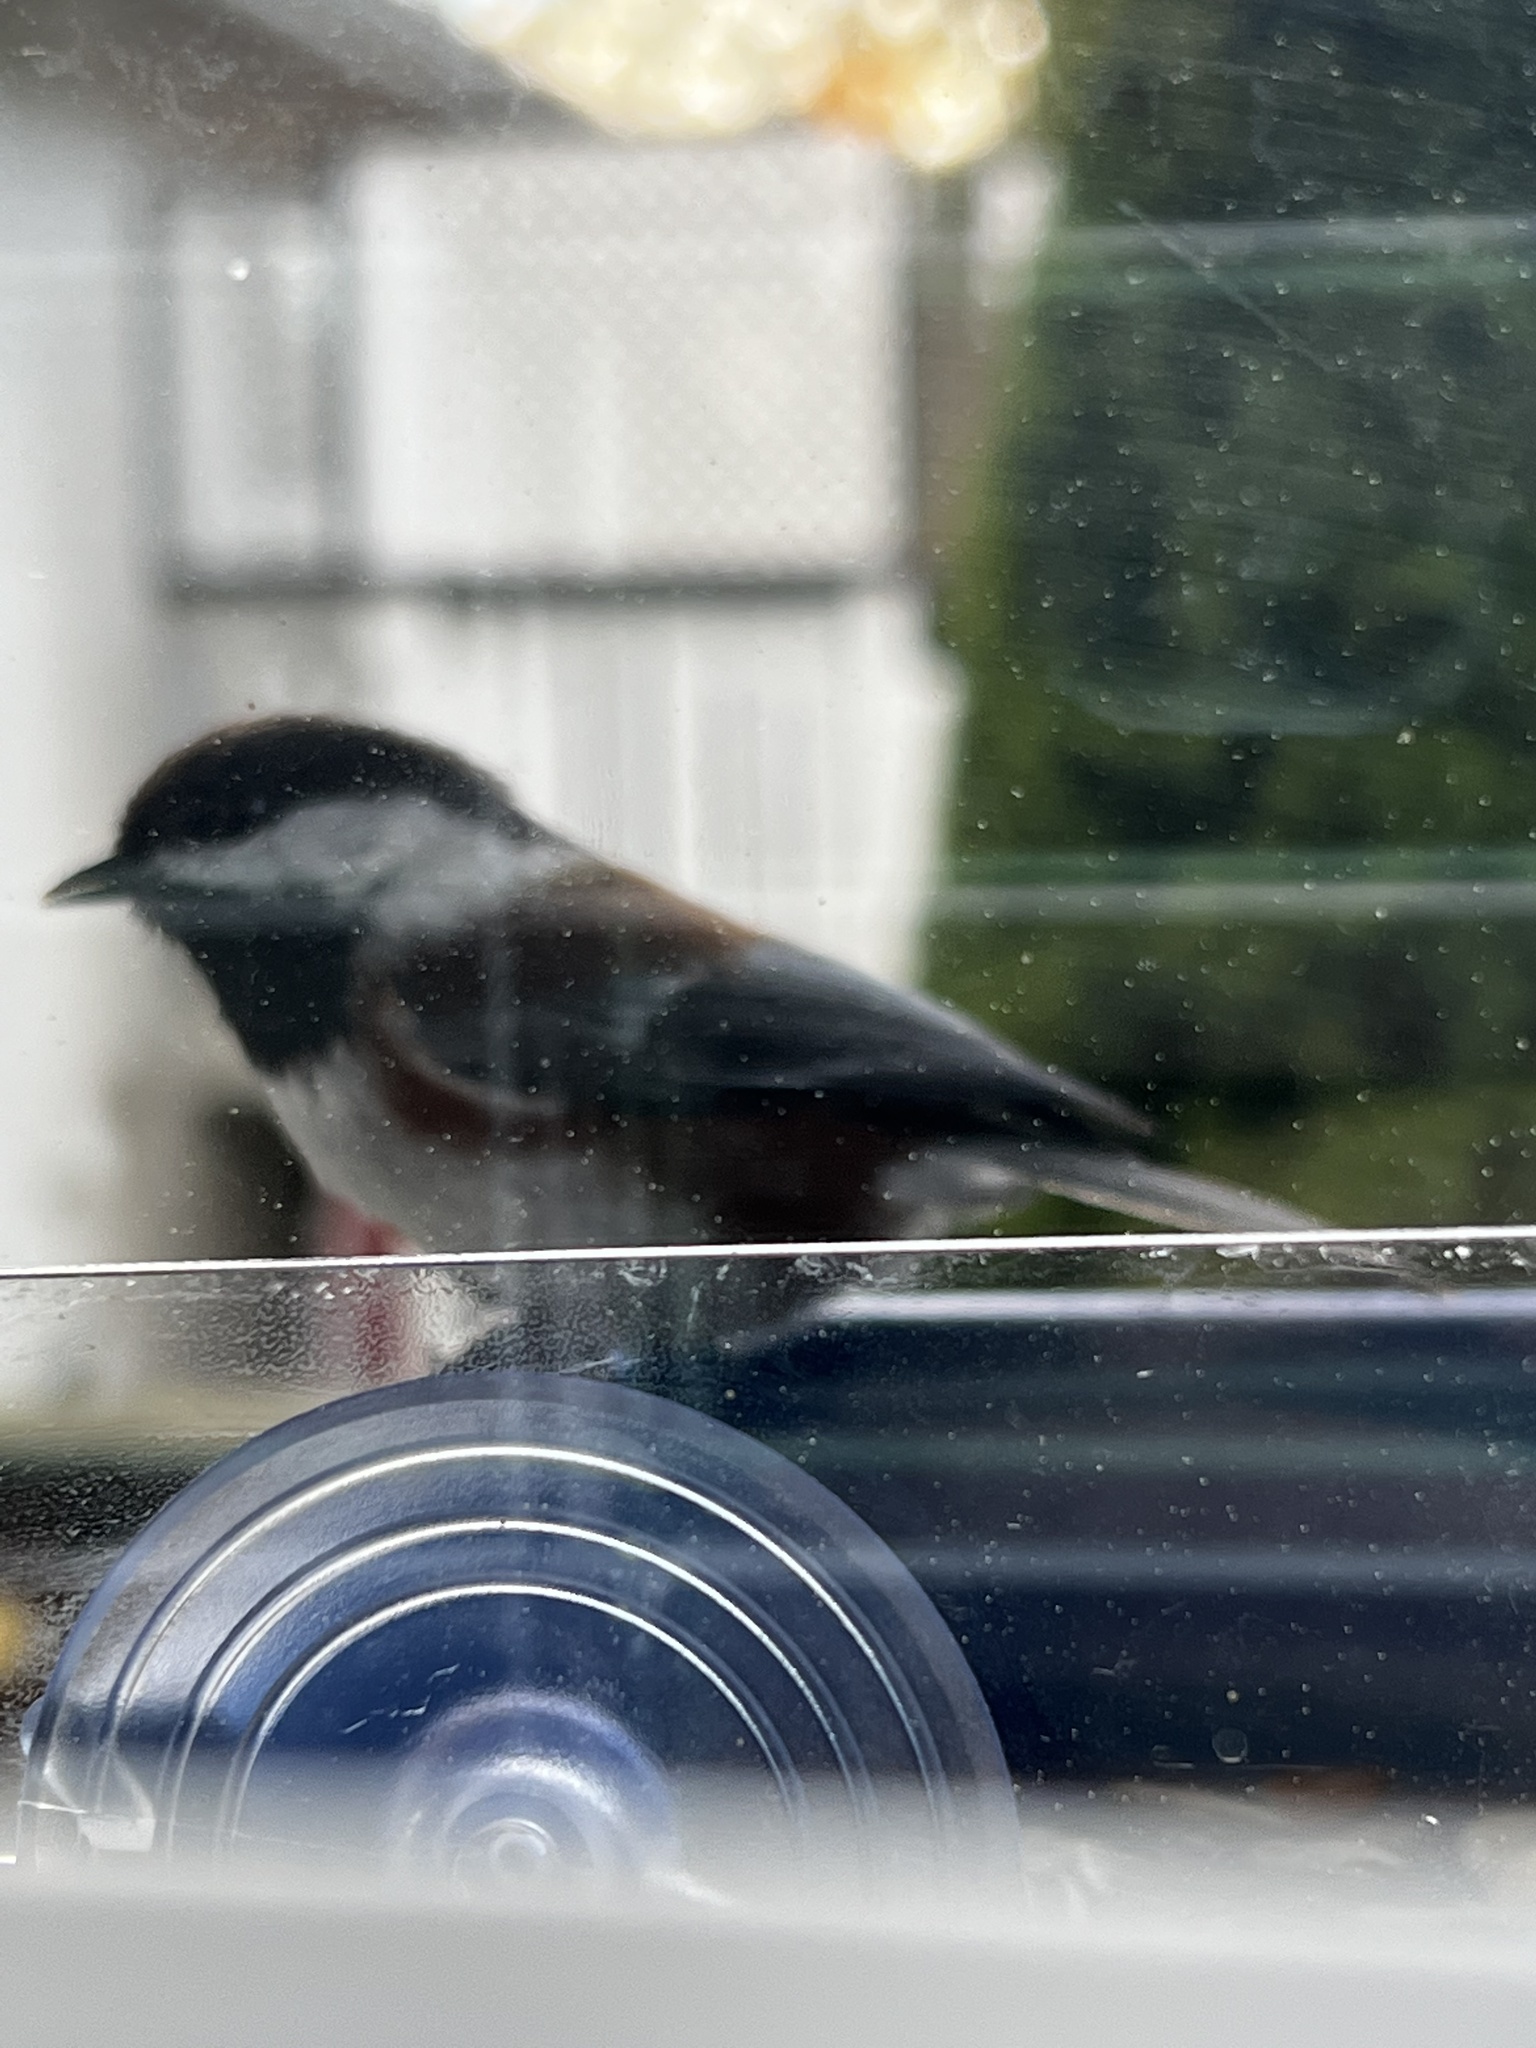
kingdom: Animalia
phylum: Chordata
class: Aves
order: Passeriformes
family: Paridae
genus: Poecile
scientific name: Poecile rufescens
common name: Chestnut-backed chickadee
